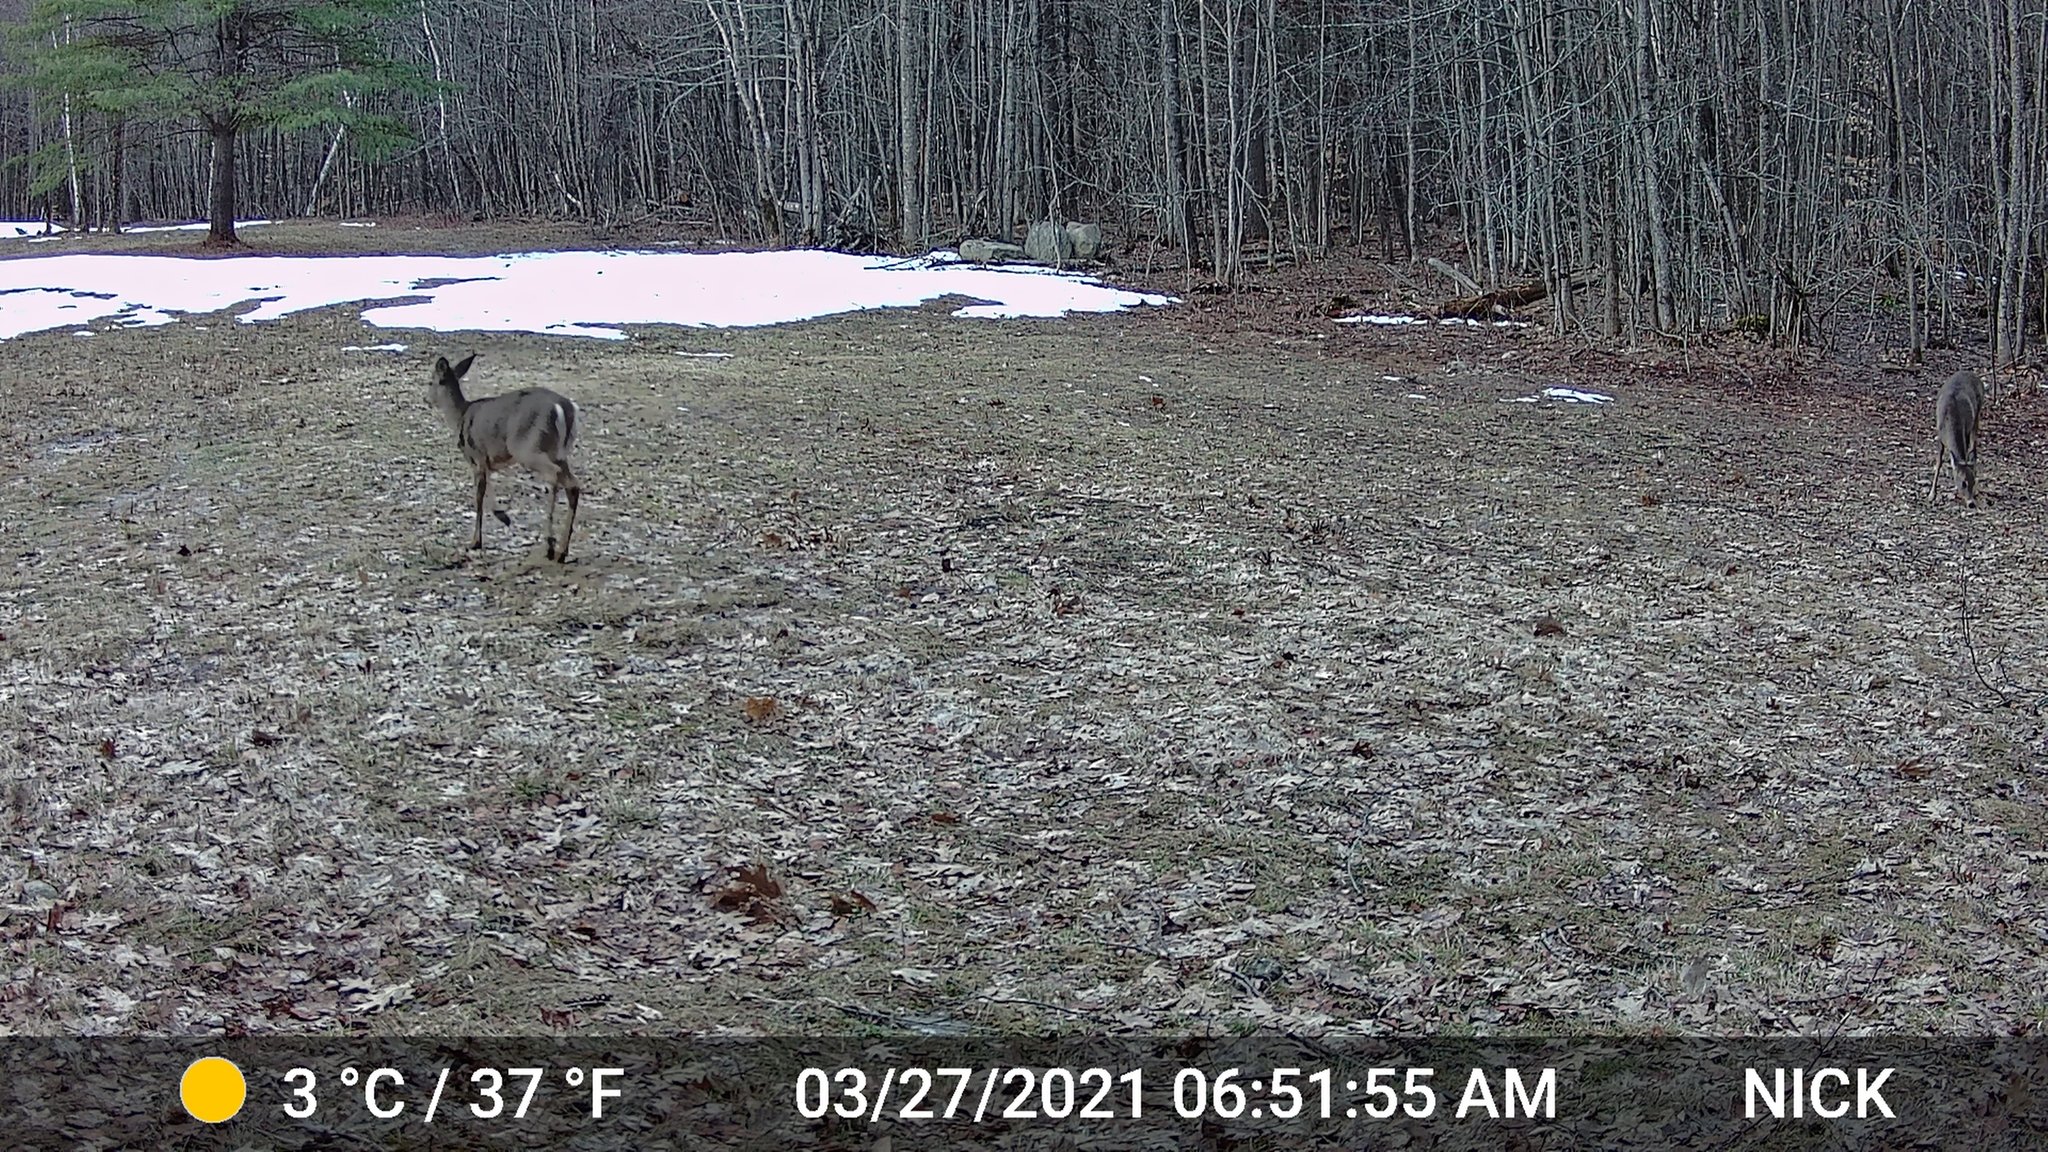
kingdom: Animalia
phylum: Chordata
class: Mammalia
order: Artiodactyla
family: Cervidae
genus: Odocoileus
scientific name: Odocoileus virginianus
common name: White-tailed deer
